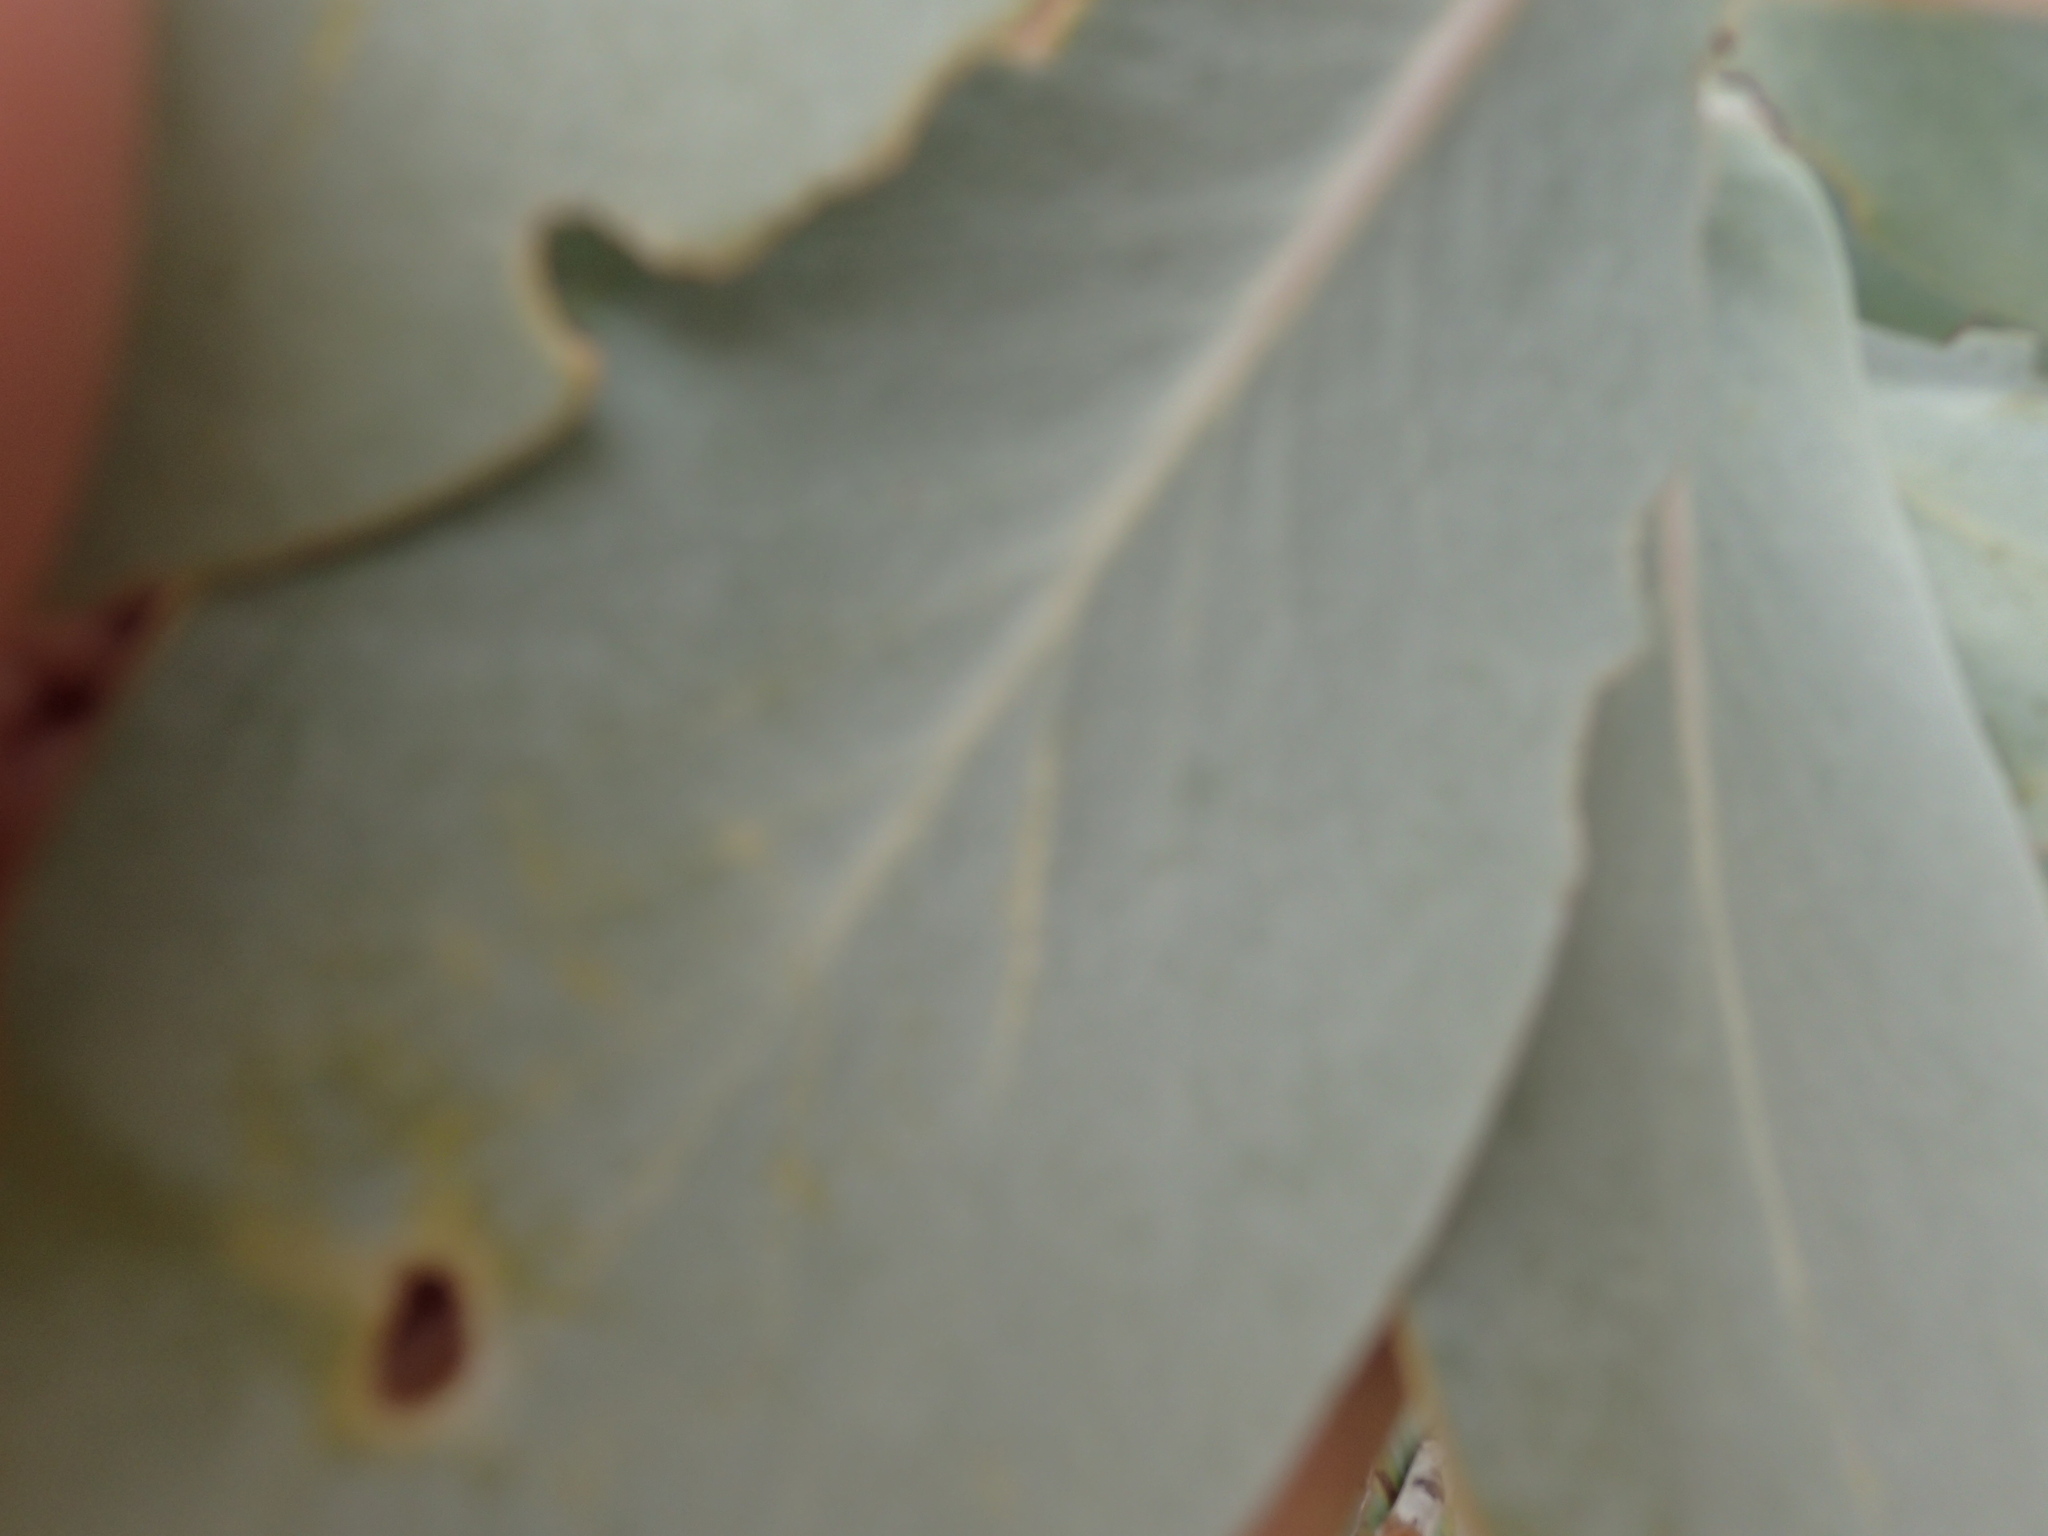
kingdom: Plantae
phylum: Tracheophyta
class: Magnoliopsida
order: Proteales
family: Proteaceae
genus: Protea
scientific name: Protea nitida
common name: Tree protea
